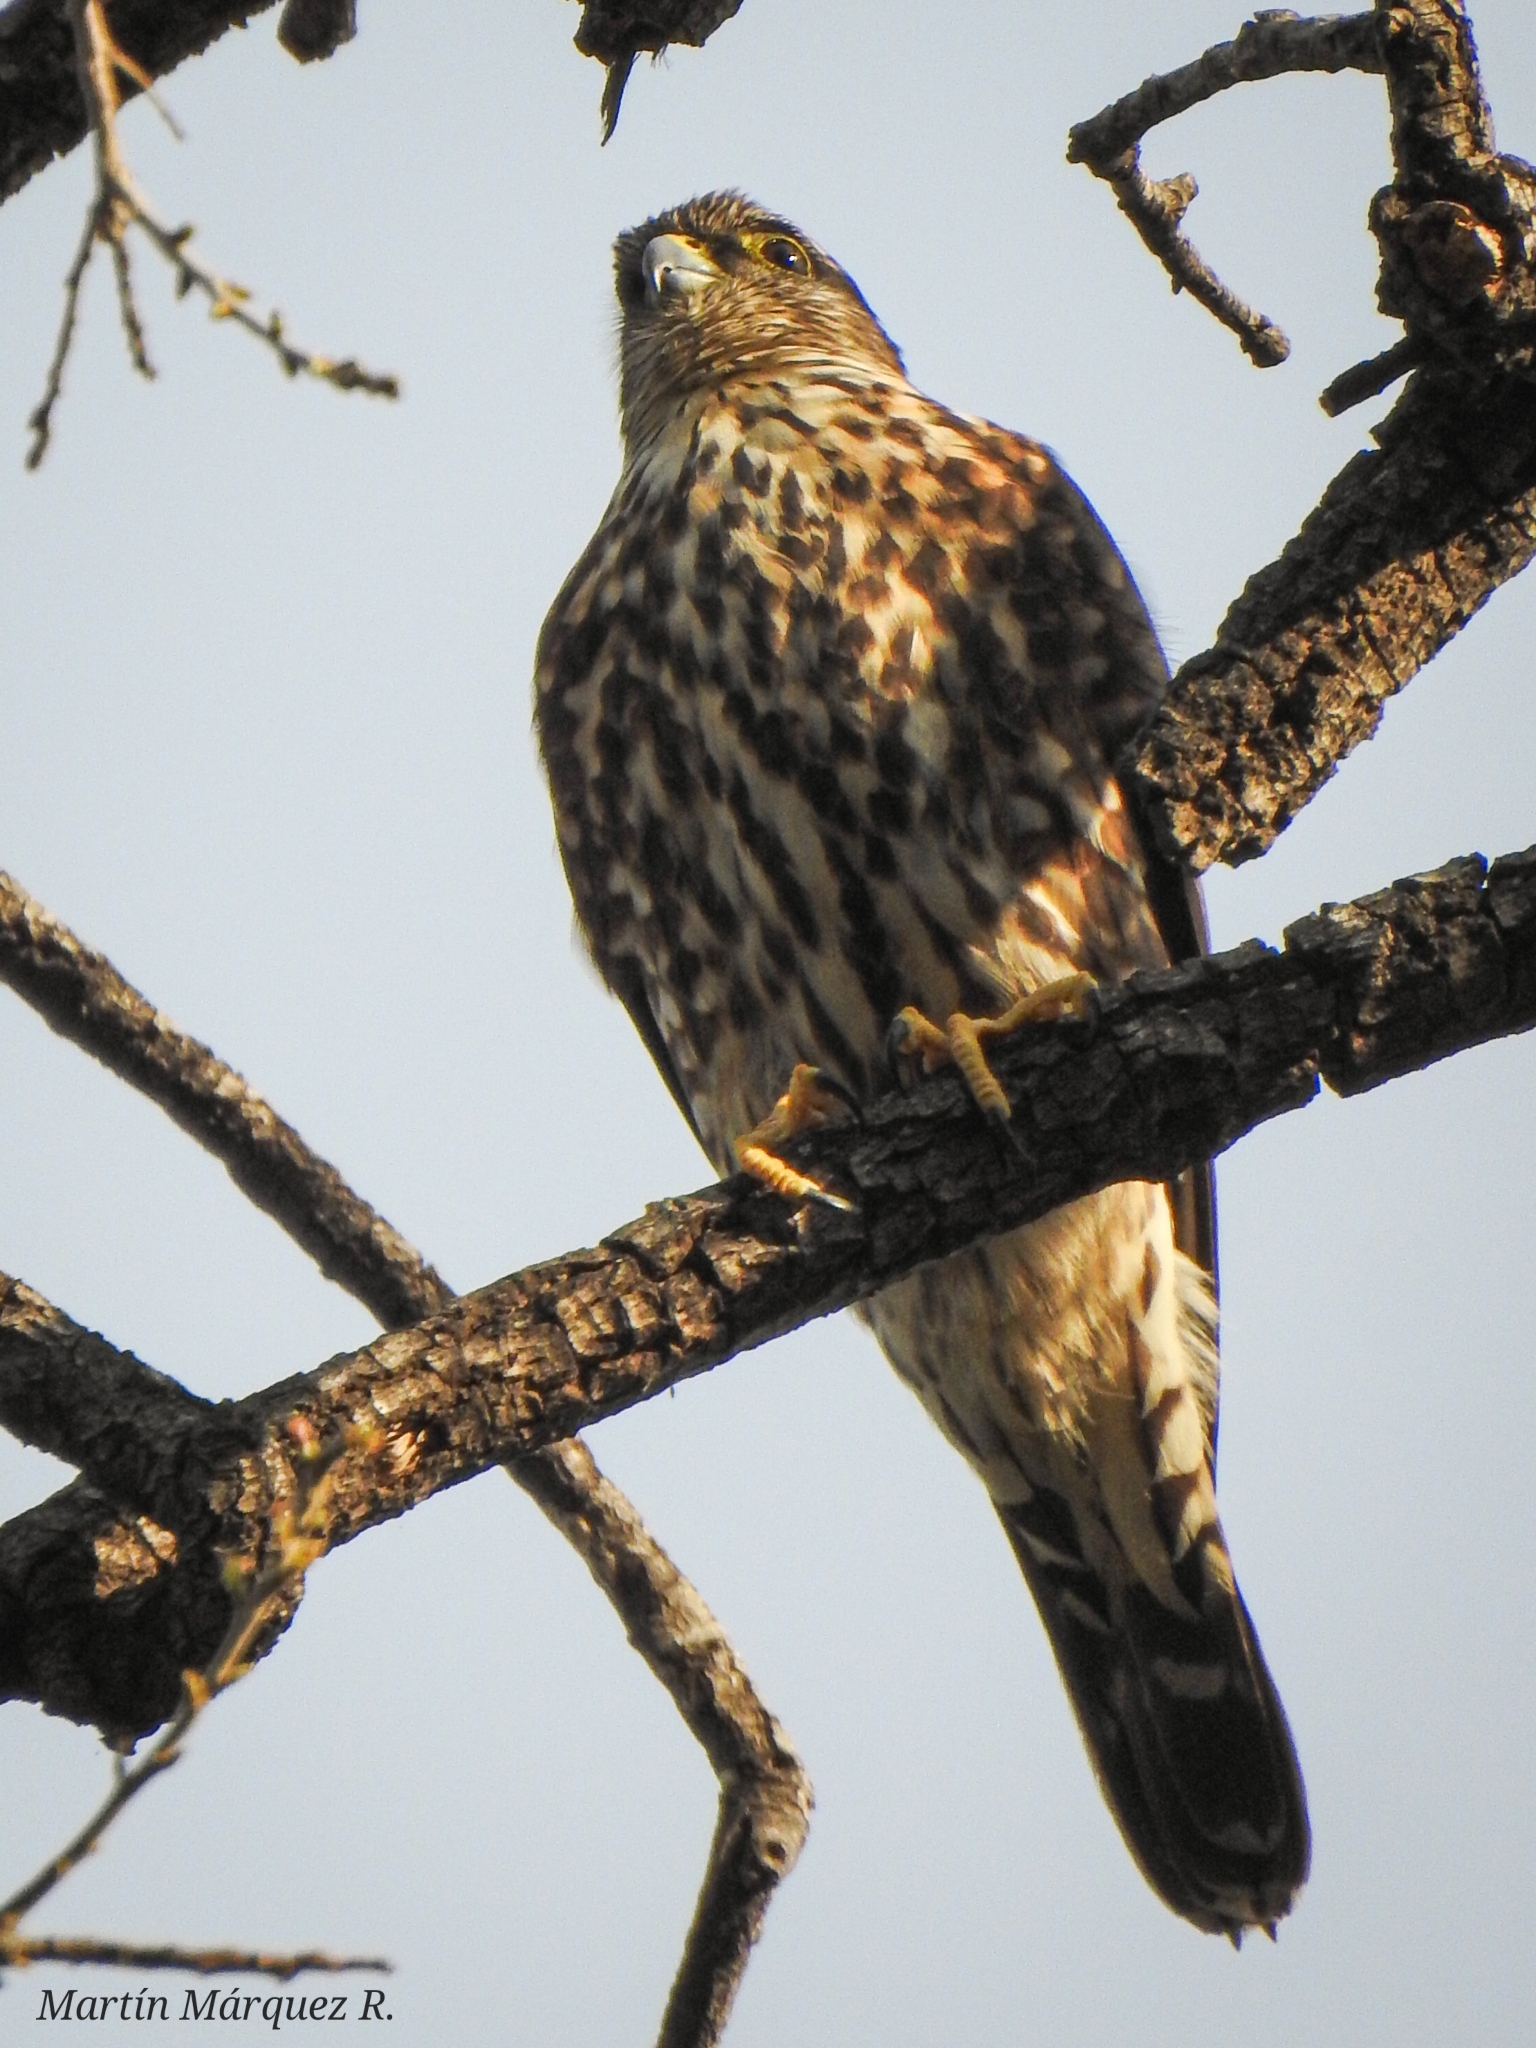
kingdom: Animalia
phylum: Chordata
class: Aves
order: Falconiformes
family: Falconidae
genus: Falco
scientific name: Falco columbarius
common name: Merlin
